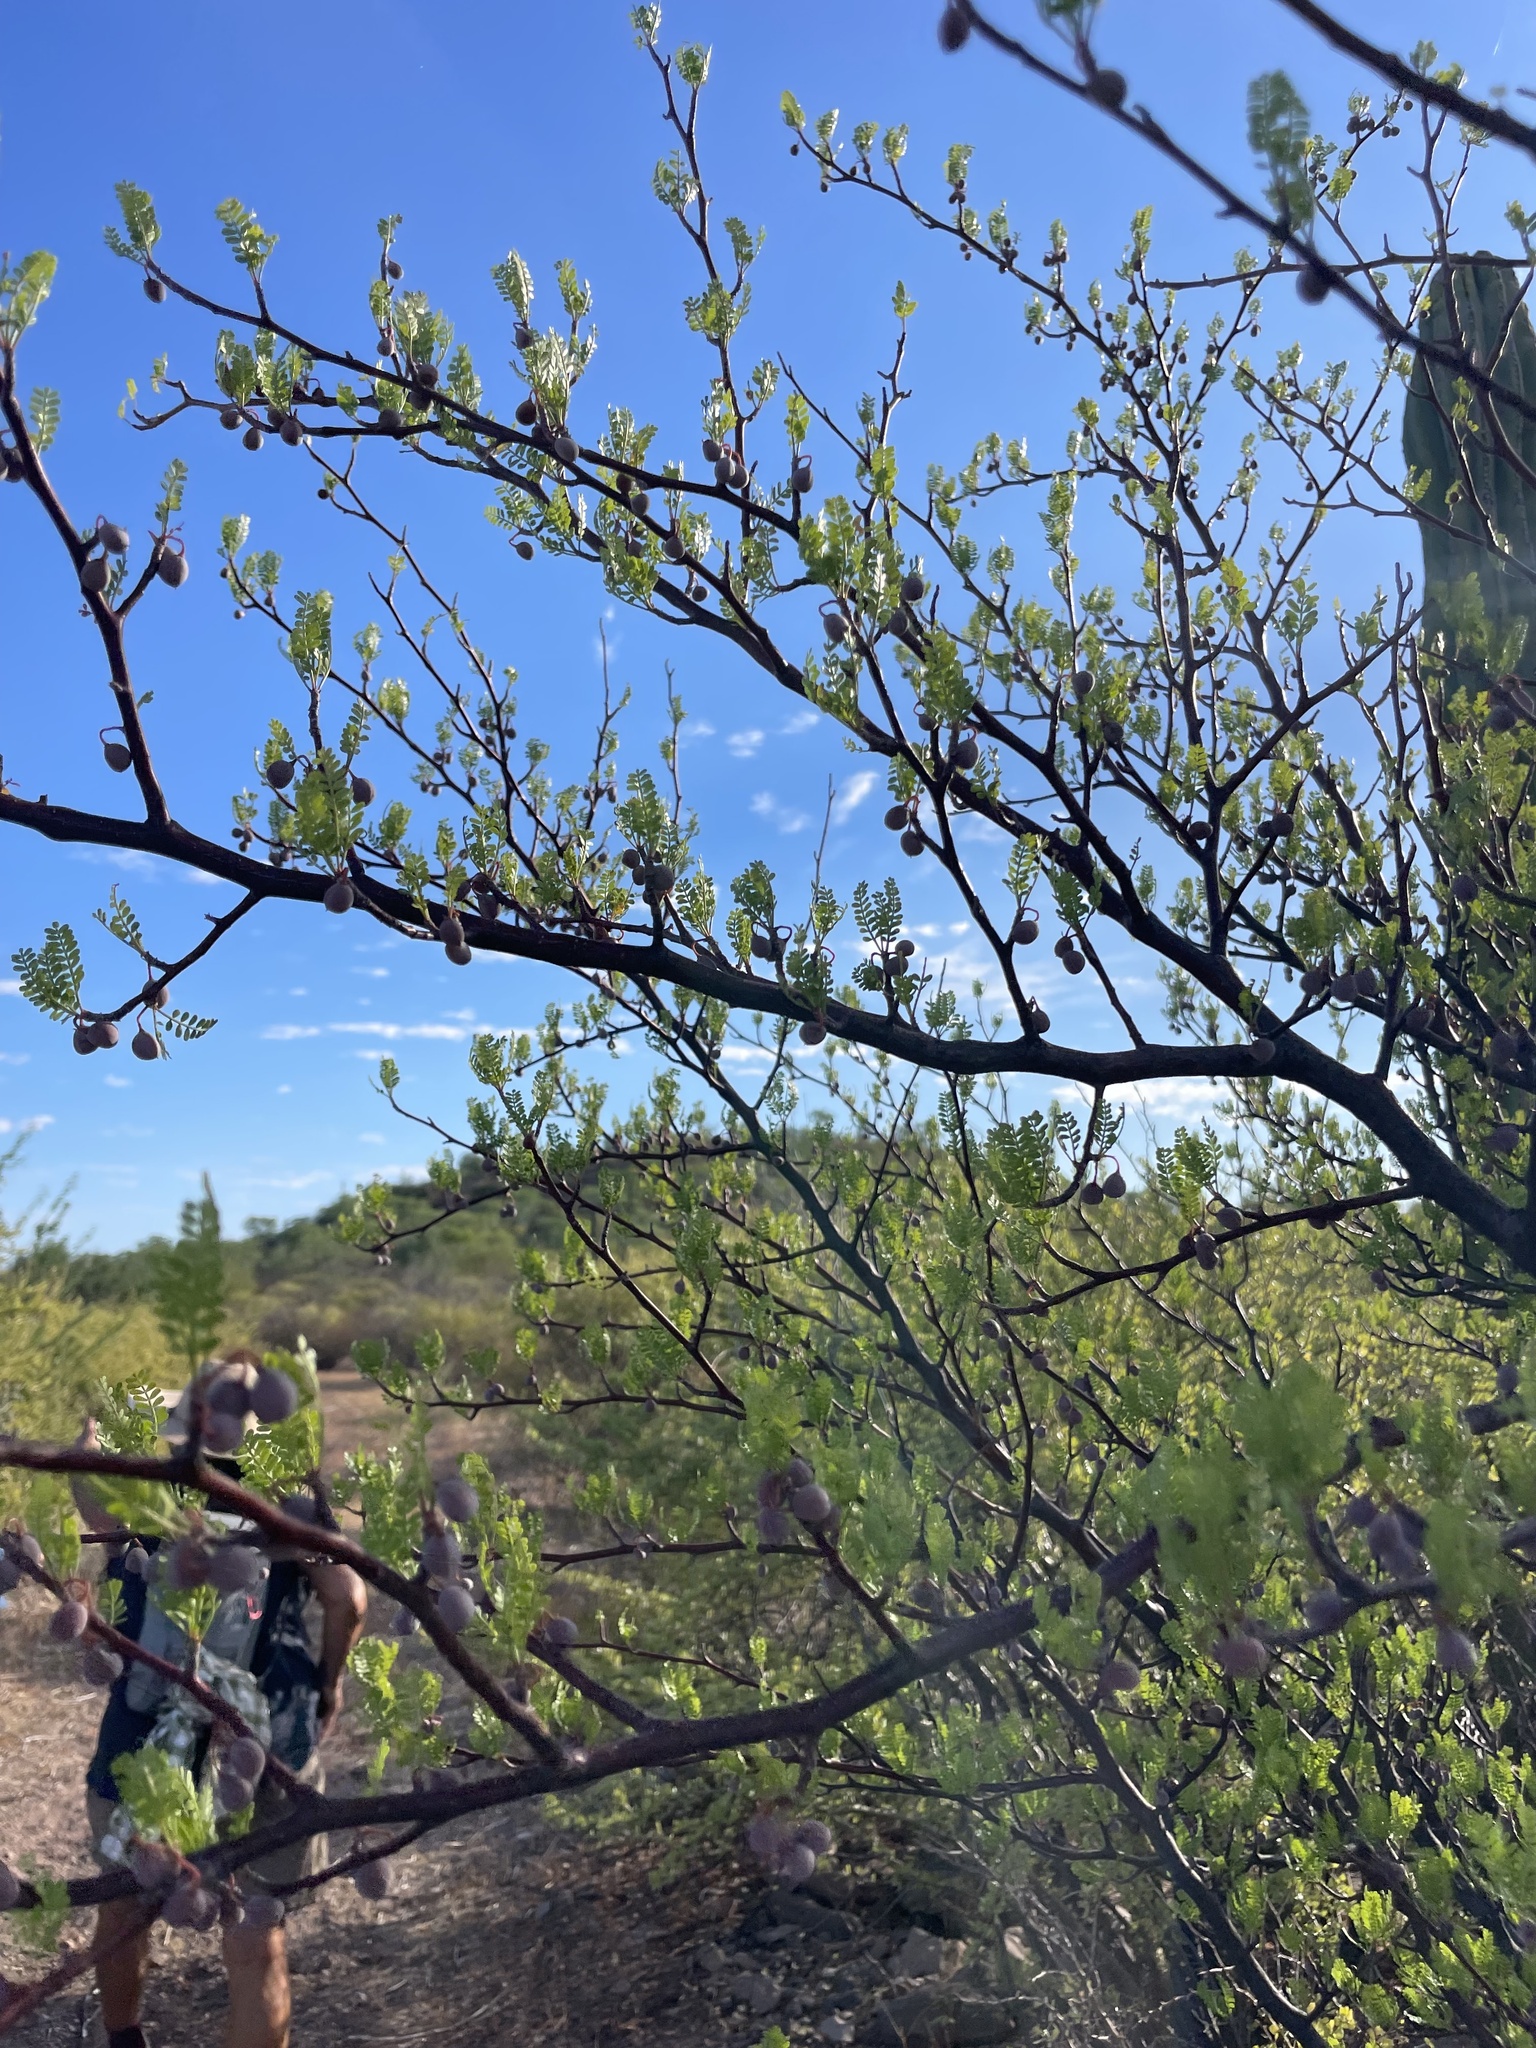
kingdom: Plantae
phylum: Tracheophyta
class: Magnoliopsida
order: Sapindales
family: Burseraceae
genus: Bursera
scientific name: Bursera microphylla
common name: Elephant tree
